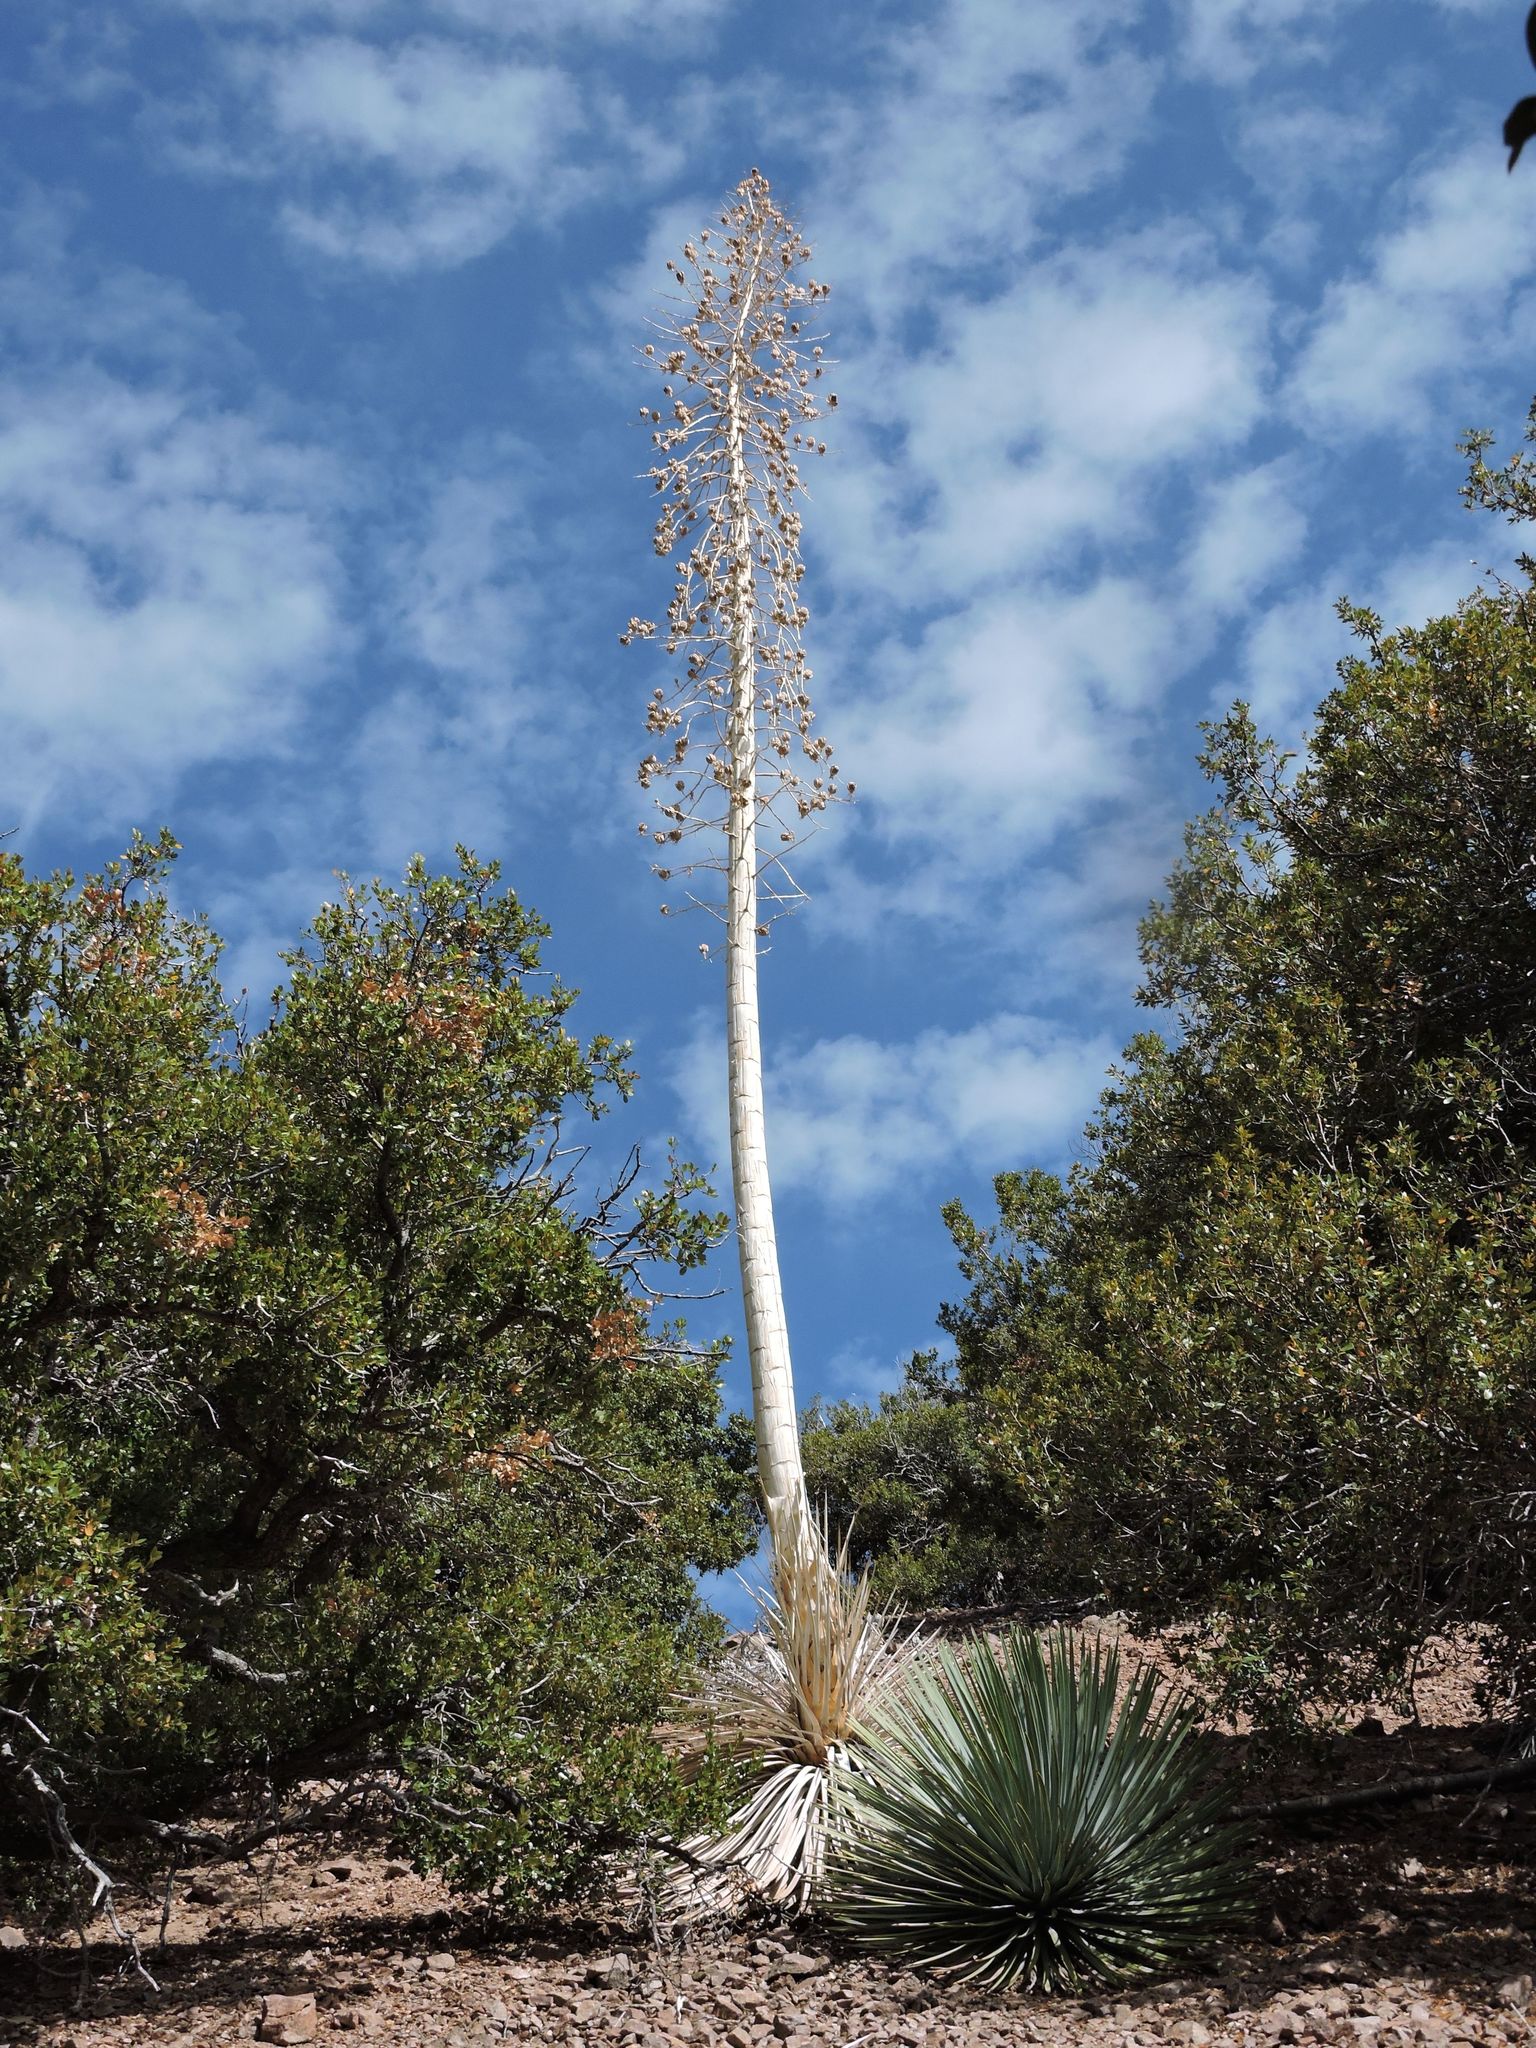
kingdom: Plantae
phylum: Tracheophyta
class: Liliopsida
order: Asparagales
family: Asparagaceae
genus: Hesperoyucca
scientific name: Hesperoyucca whipplei
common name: Our lord's-candle
